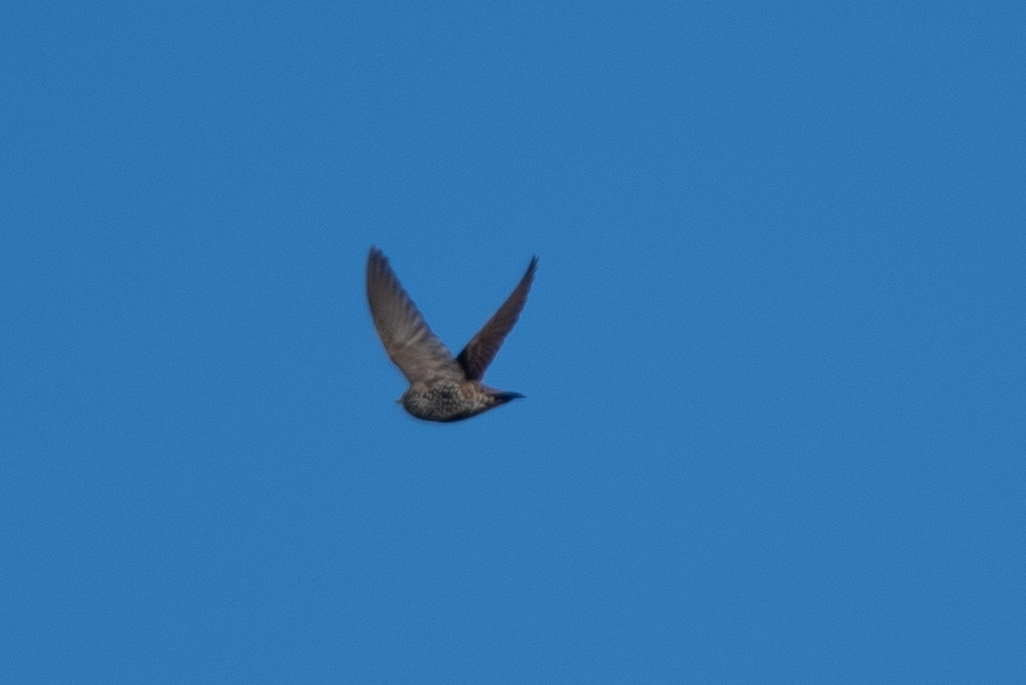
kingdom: Animalia
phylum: Chordata
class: Aves
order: Passeriformes
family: Sturnidae
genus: Sturnus
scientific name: Sturnus vulgaris
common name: Common starling
